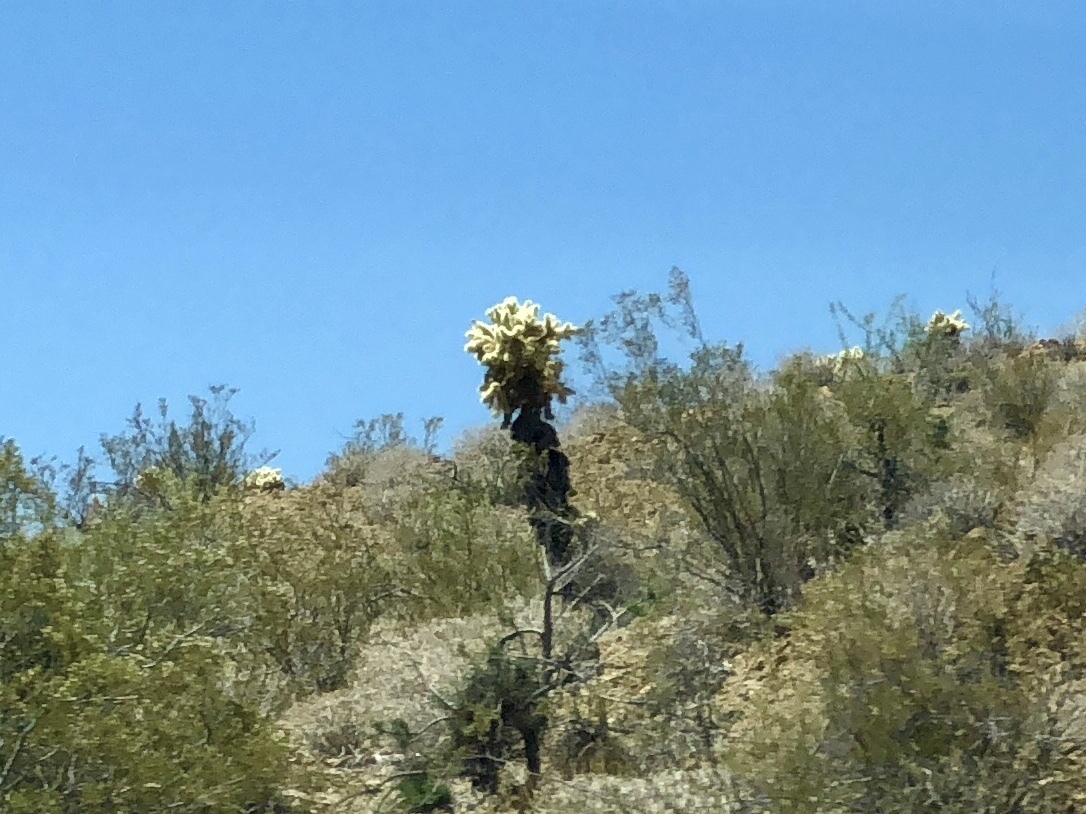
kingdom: Plantae
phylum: Tracheophyta
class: Magnoliopsida
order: Caryophyllales
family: Cactaceae
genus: Cylindropuntia
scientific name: Cylindropuntia fosbergii
